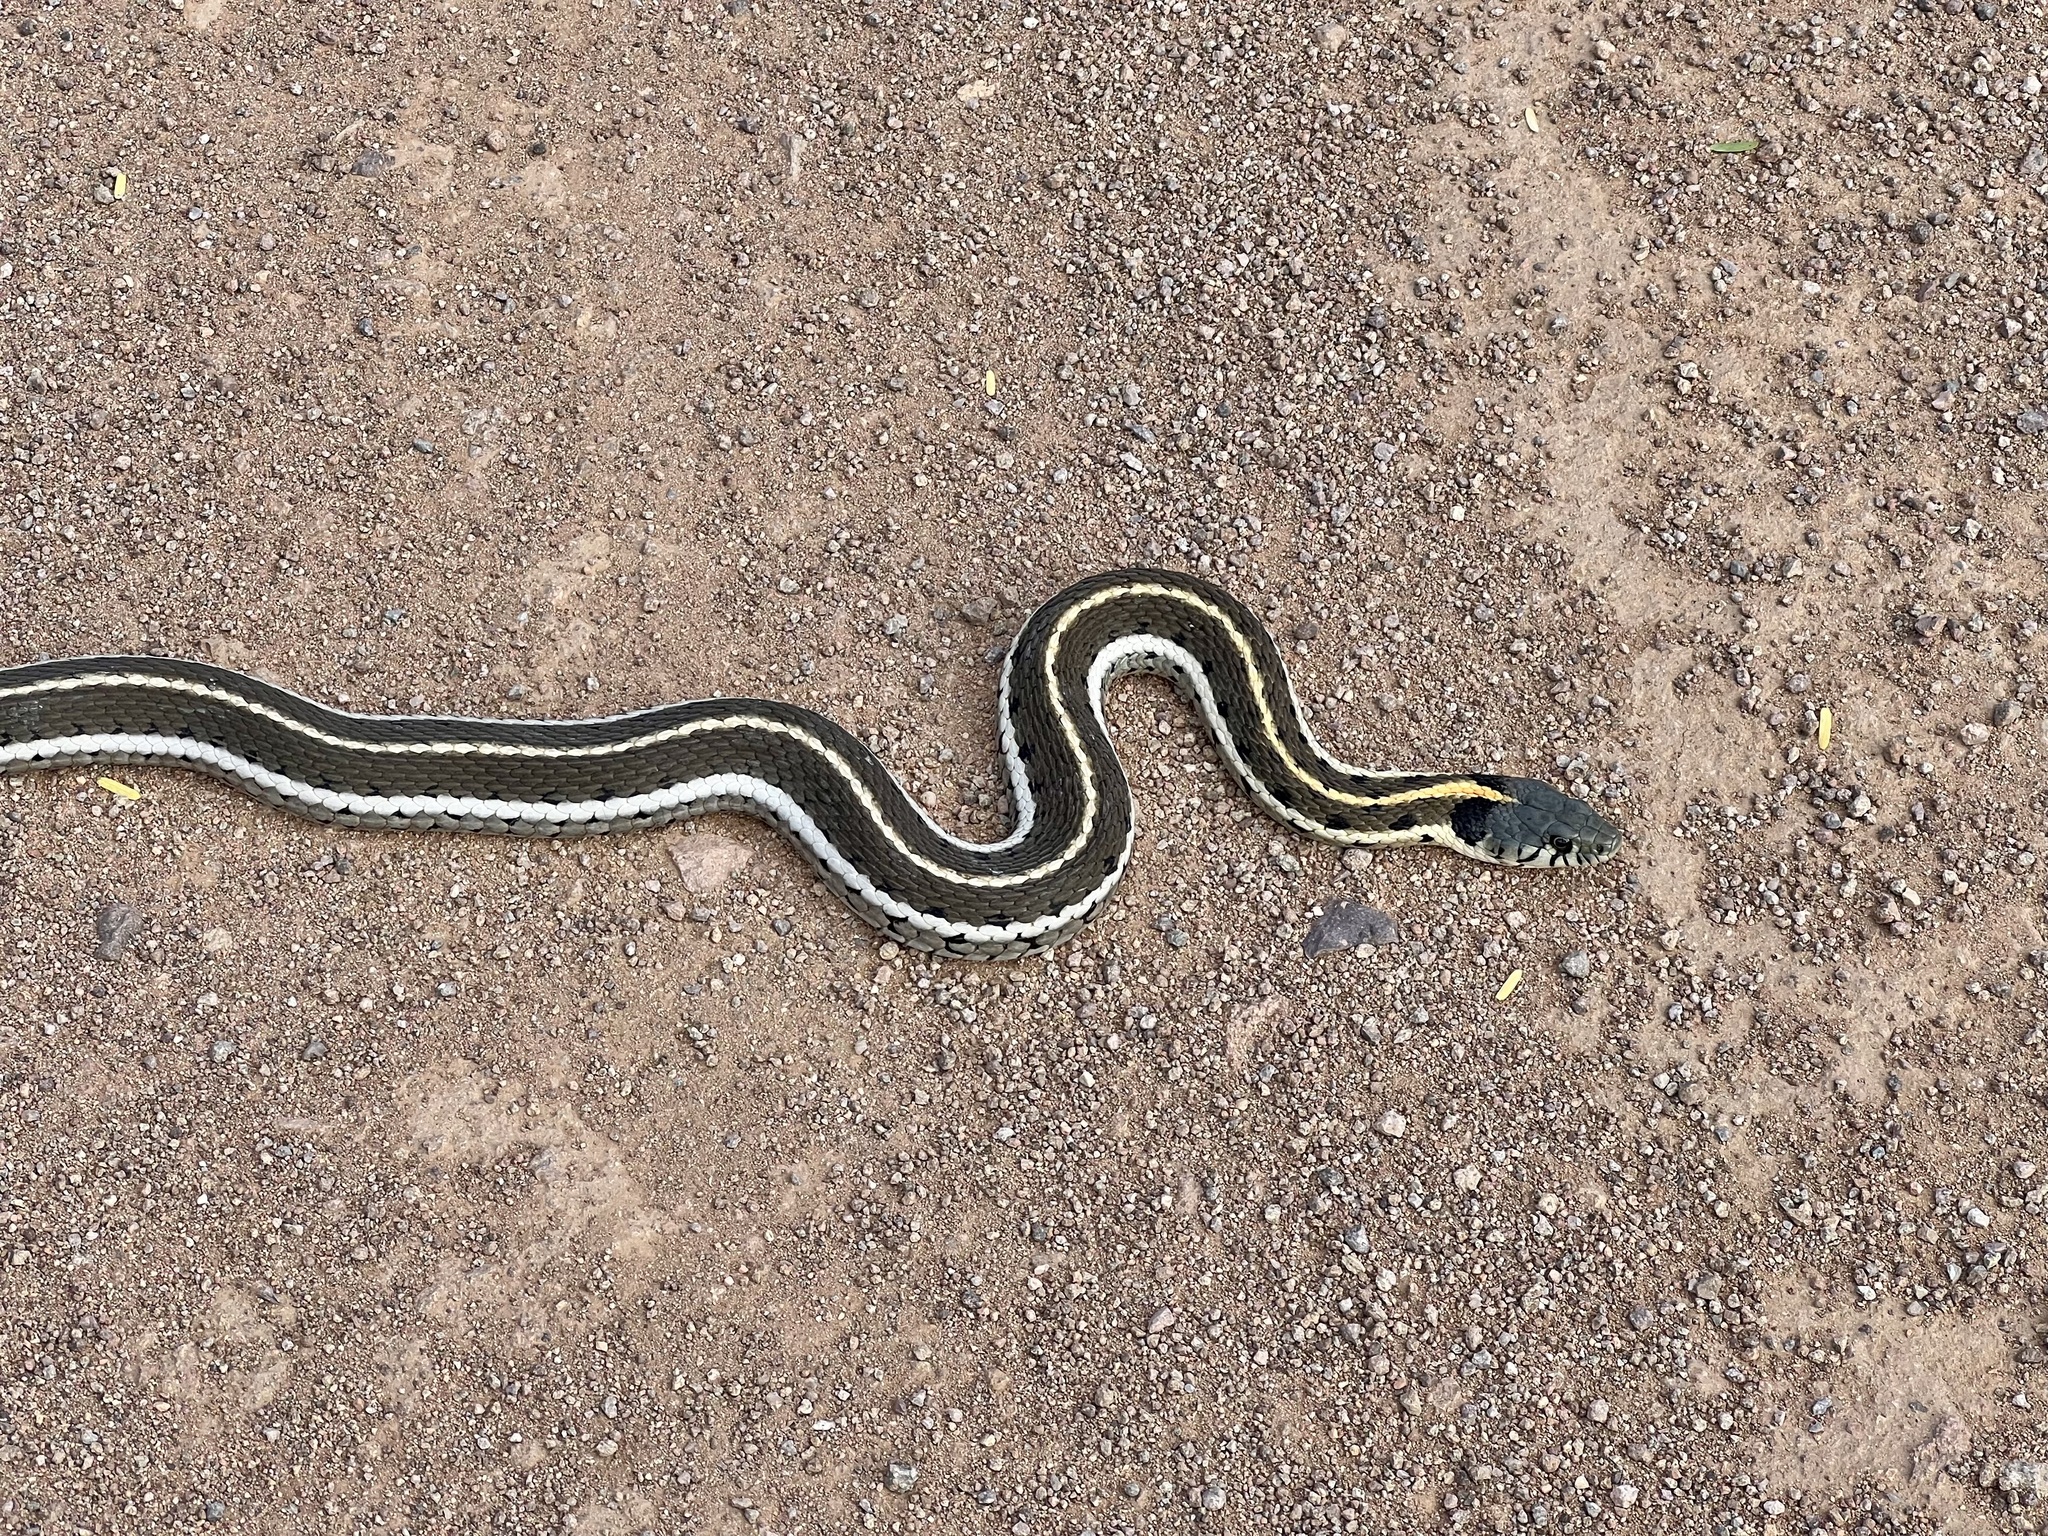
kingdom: Animalia
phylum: Chordata
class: Squamata
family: Colubridae
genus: Thamnophis
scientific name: Thamnophis cyrtopsis
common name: Black-necked gartersnake
